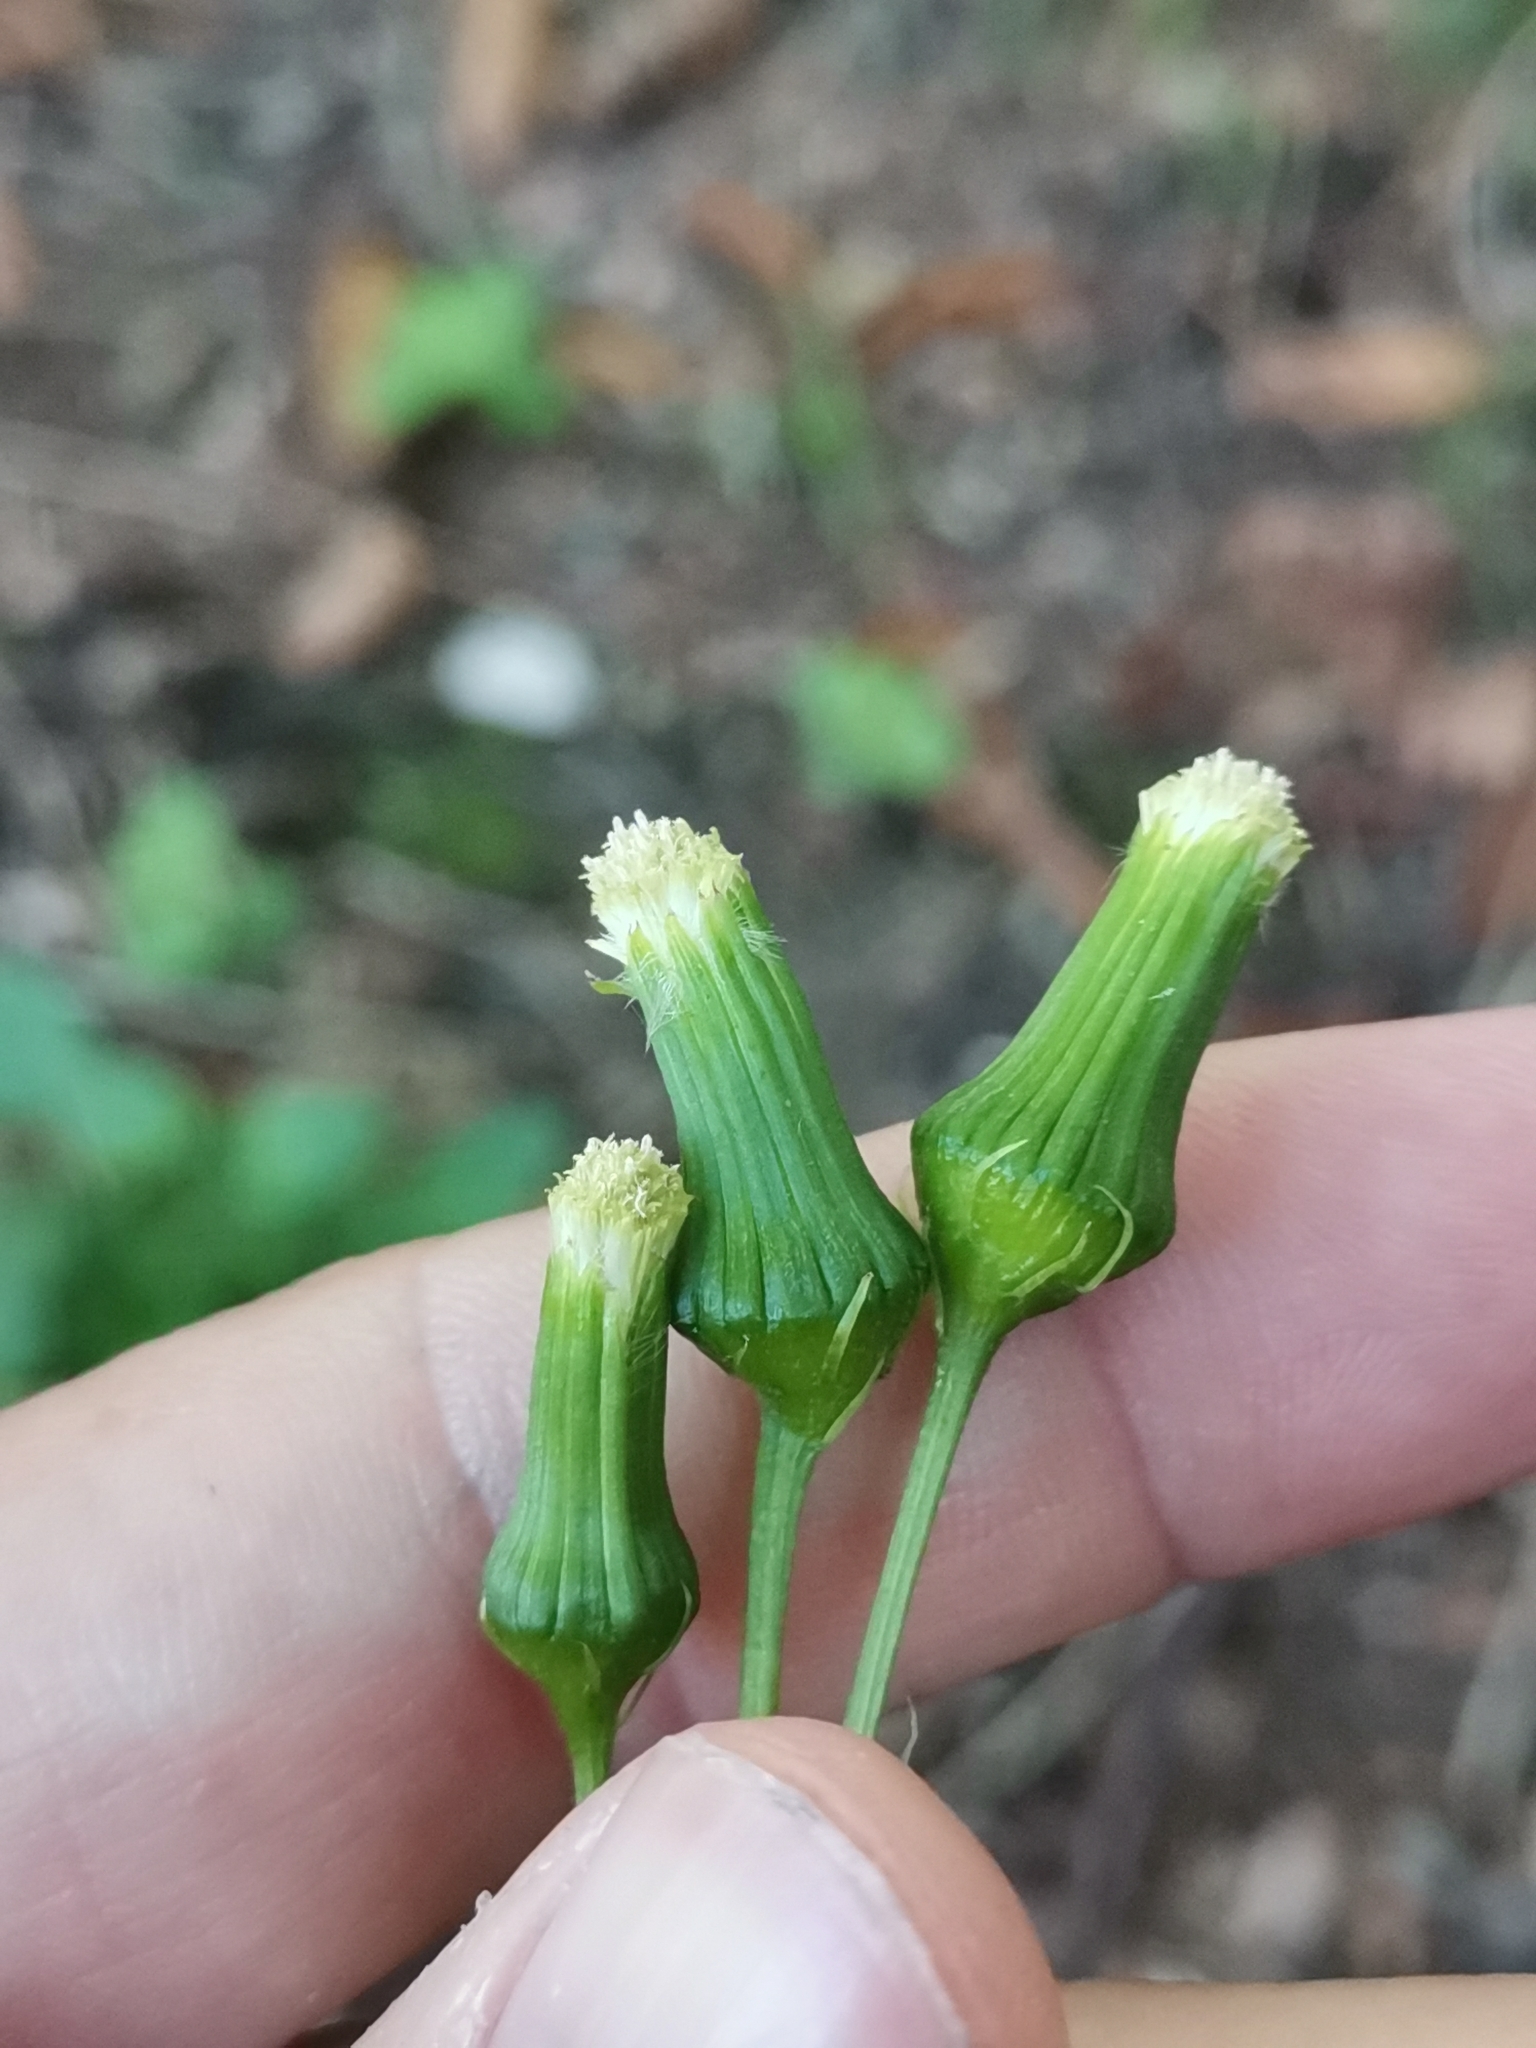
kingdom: Plantae
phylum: Tracheophyta
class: Magnoliopsida
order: Asterales
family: Asteraceae
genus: Erechtites
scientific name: Erechtites hieraciifolius
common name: American burnweed
